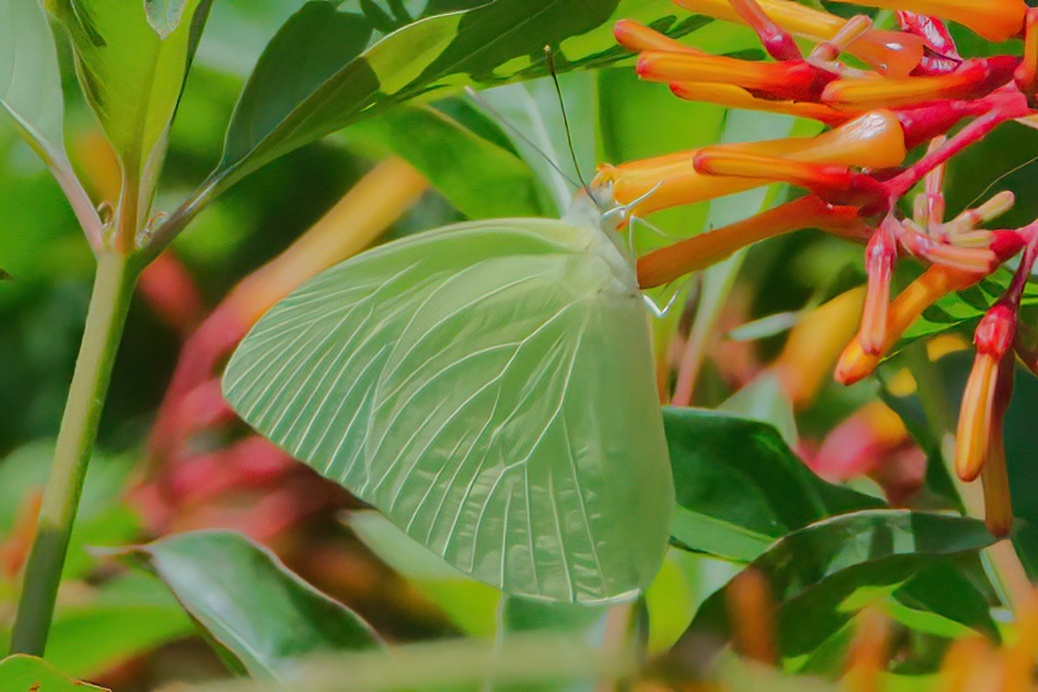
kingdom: Animalia
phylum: Arthropoda
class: Insecta
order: Lepidoptera
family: Pieridae
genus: Aphrissa
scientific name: Aphrissa statira
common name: Statira sulphur
